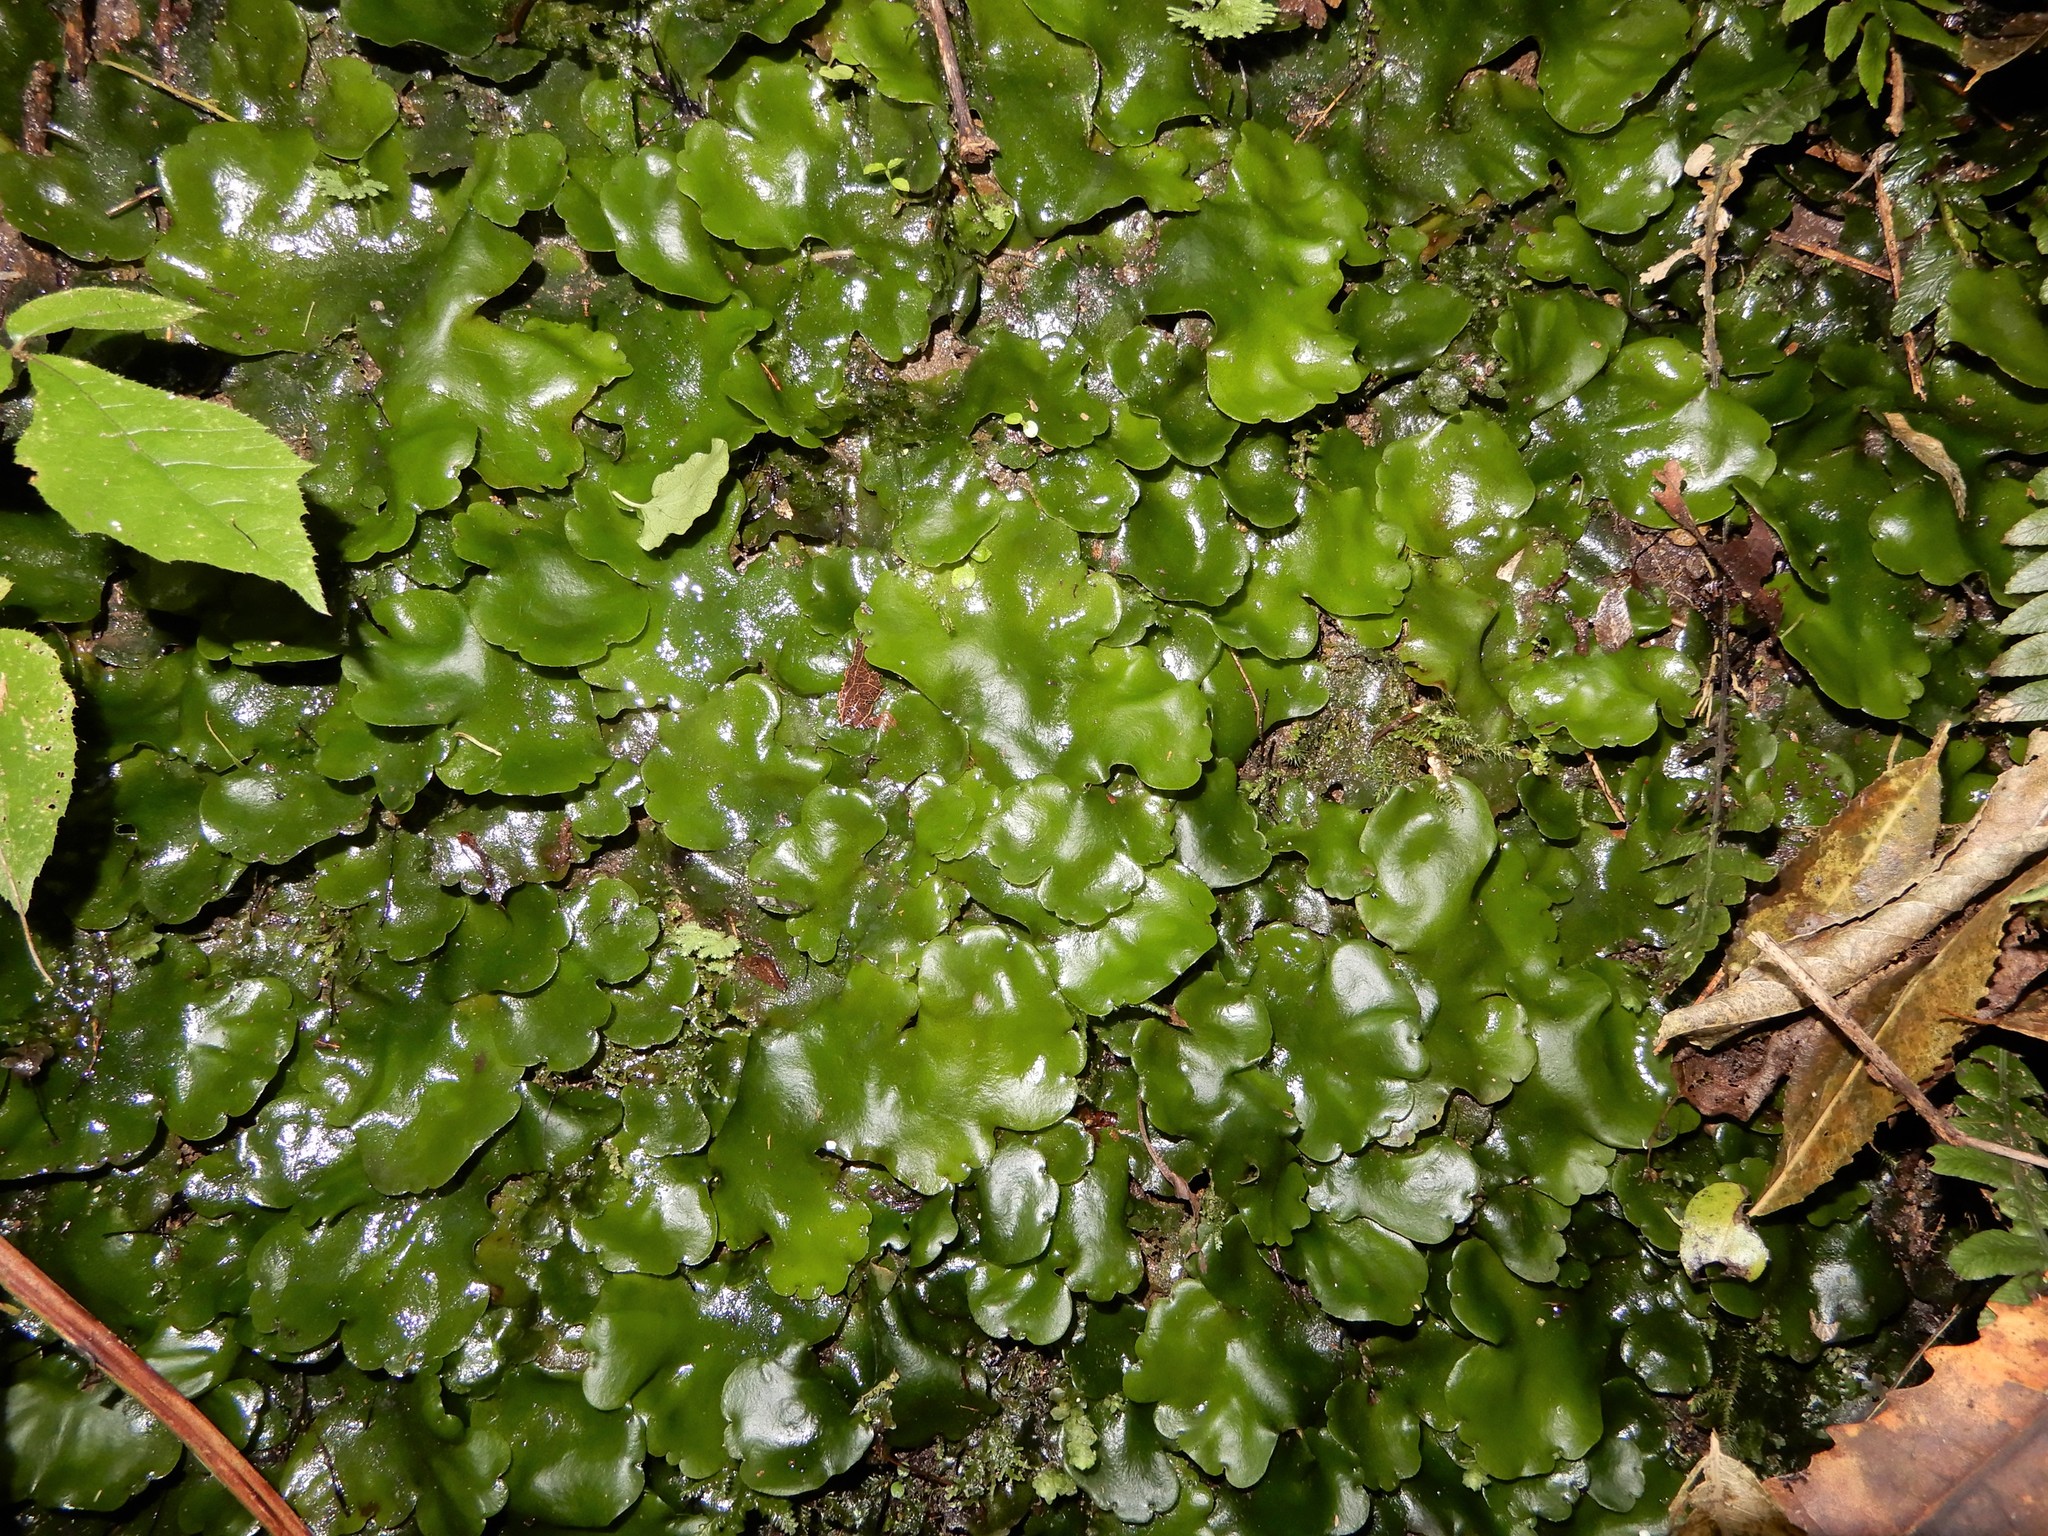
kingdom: Plantae
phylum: Marchantiophyta
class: Marchantiopsida
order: Marchantiales
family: Monocleaceae
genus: Monoclea
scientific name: Monoclea forsteri
